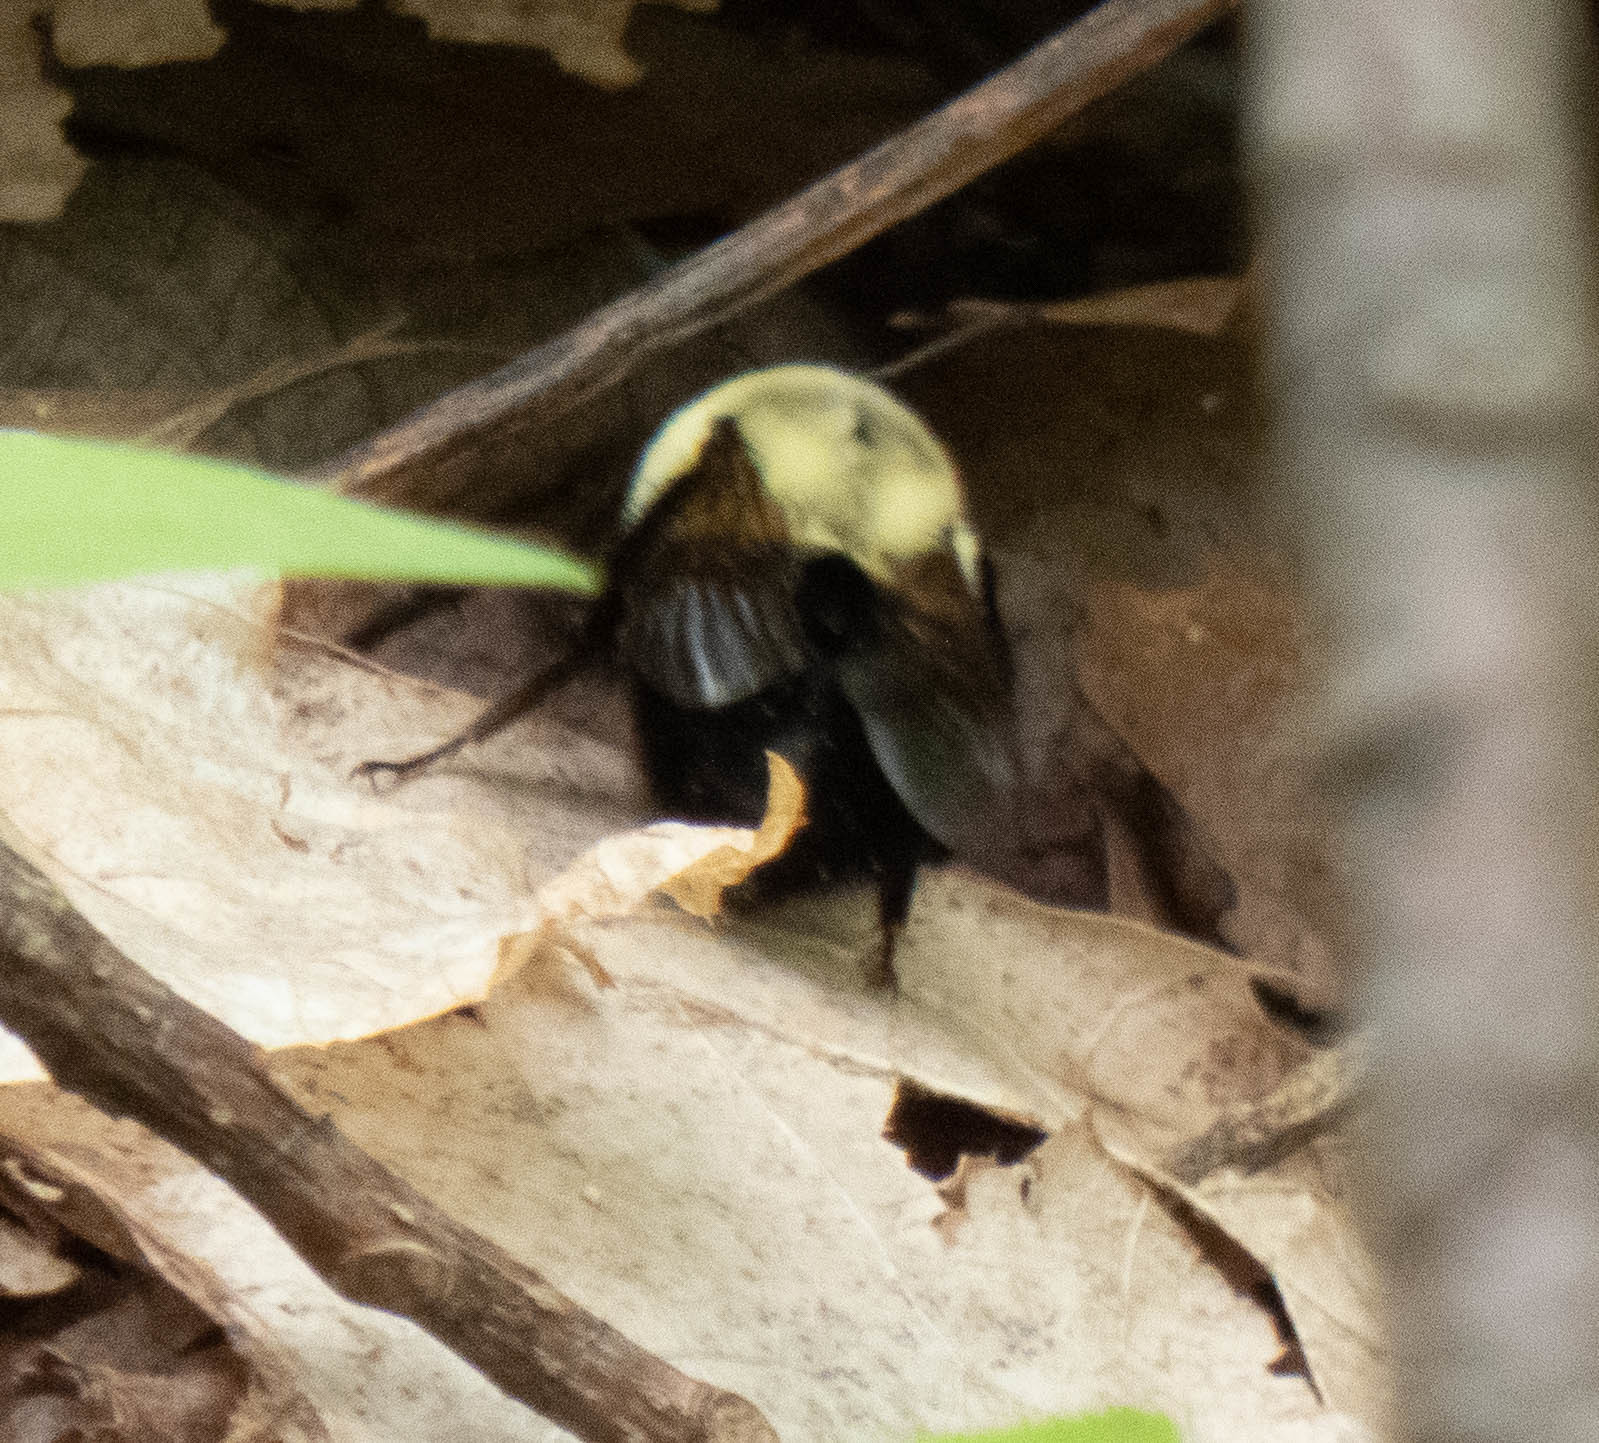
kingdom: Animalia
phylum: Arthropoda
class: Insecta
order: Hymenoptera
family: Apidae
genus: Bombus
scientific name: Bombus impatiens
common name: Common eastern bumble bee
